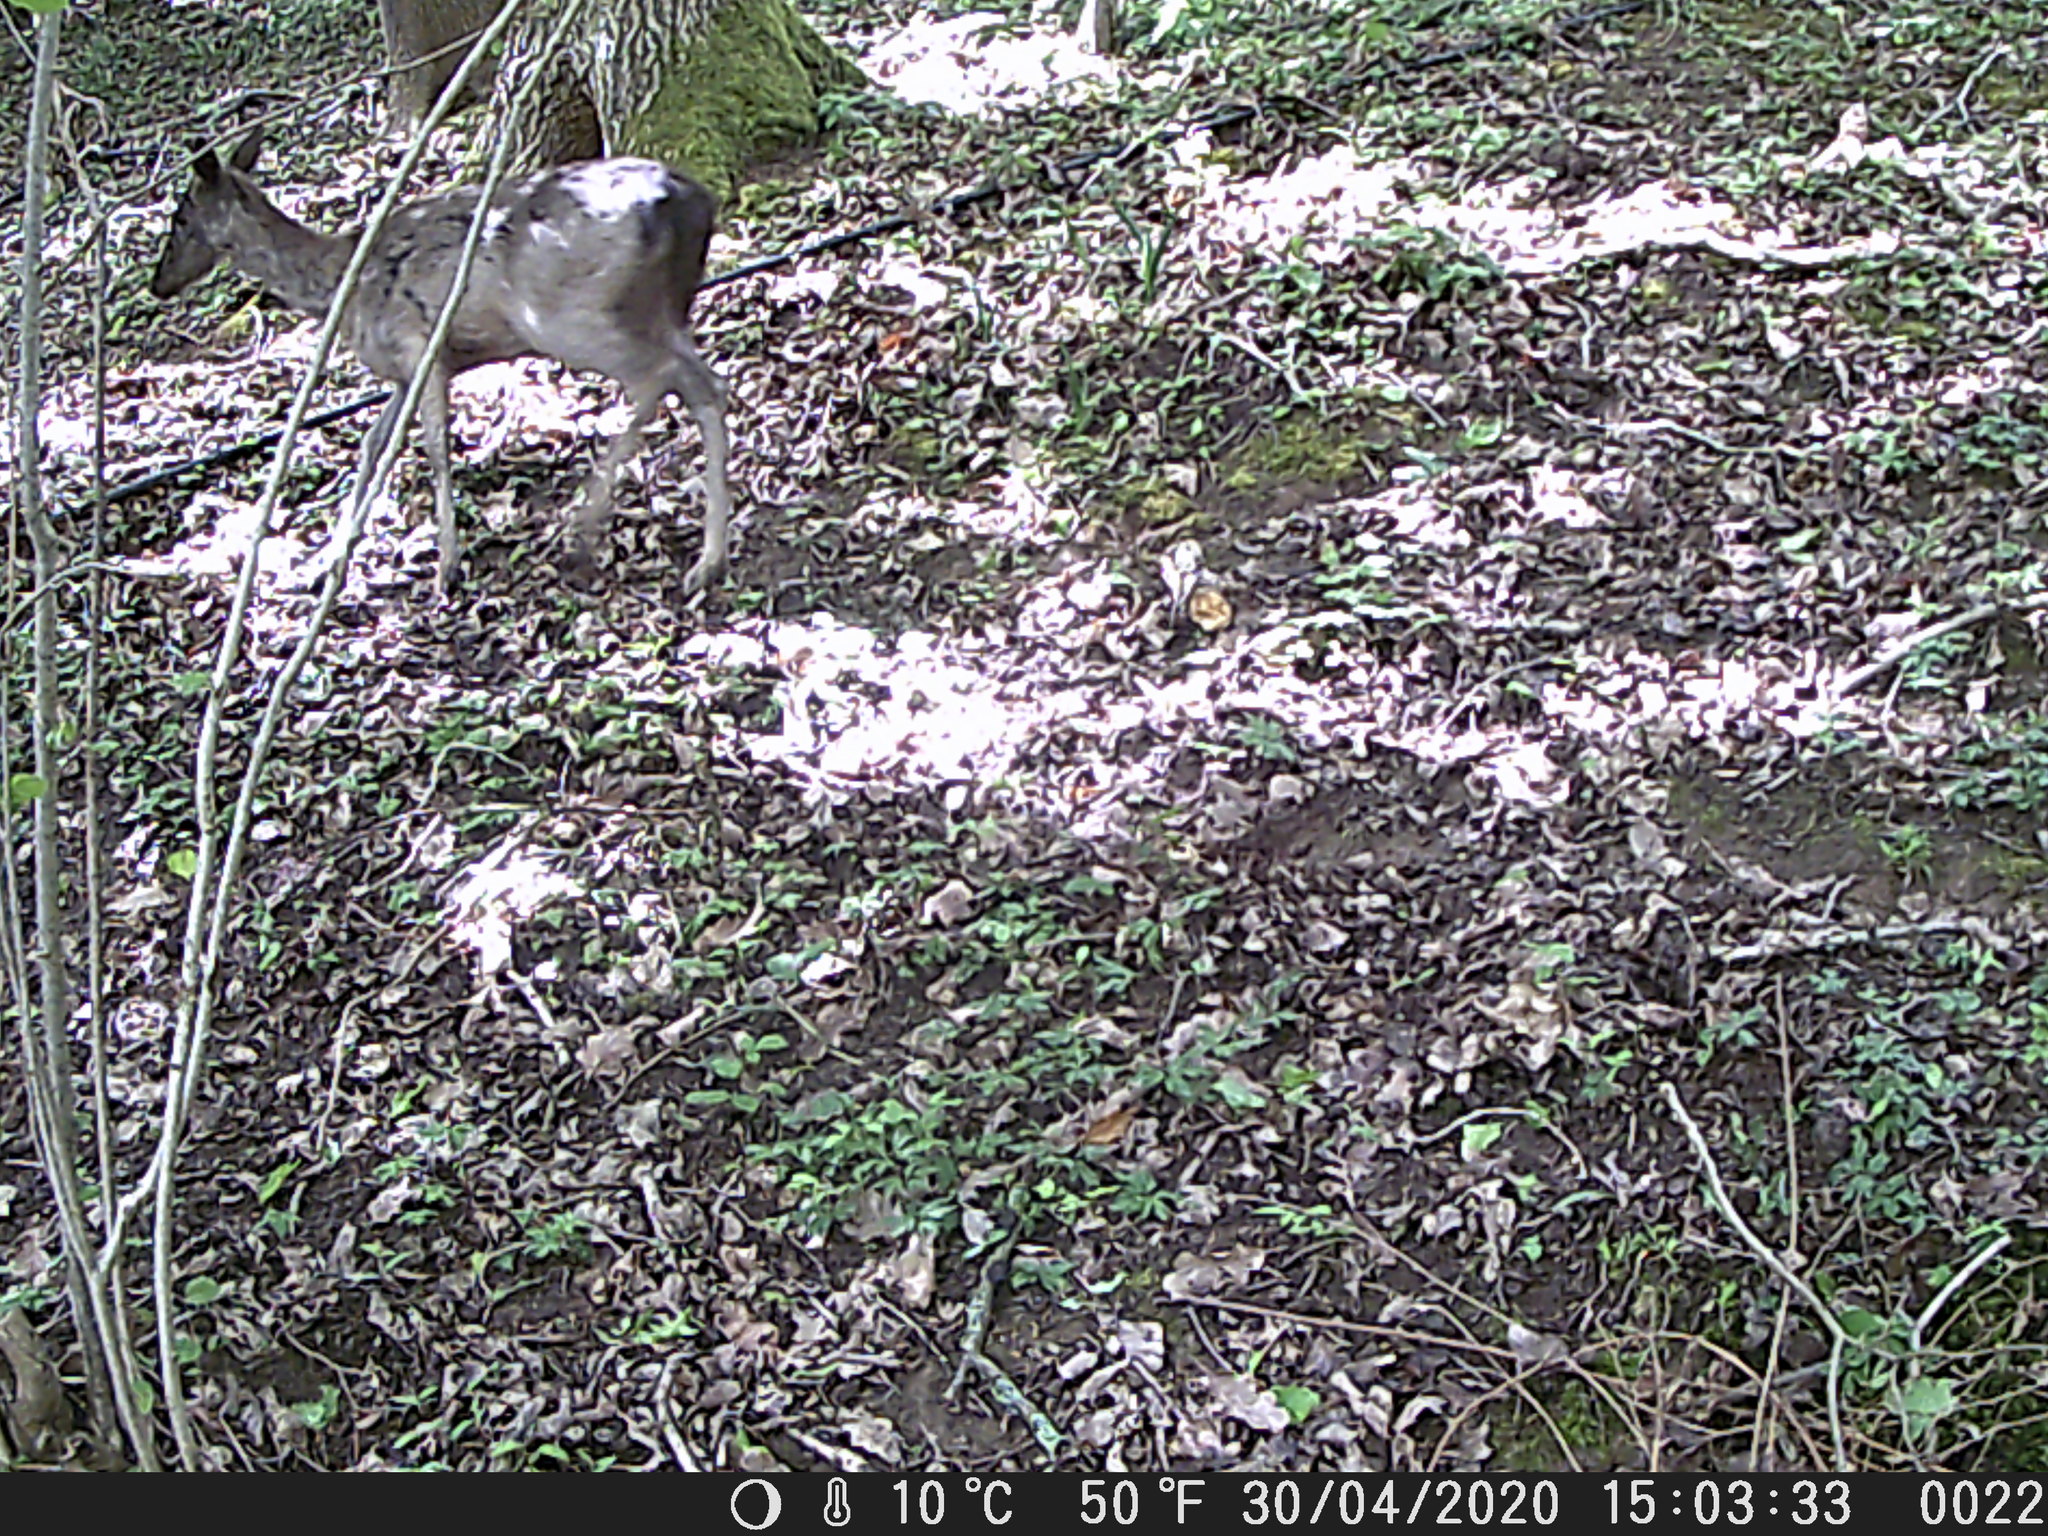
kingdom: Animalia
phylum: Chordata
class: Mammalia
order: Artiodactyla
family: Cervidae
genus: Dama
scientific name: Dama dama
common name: Fallow deer
